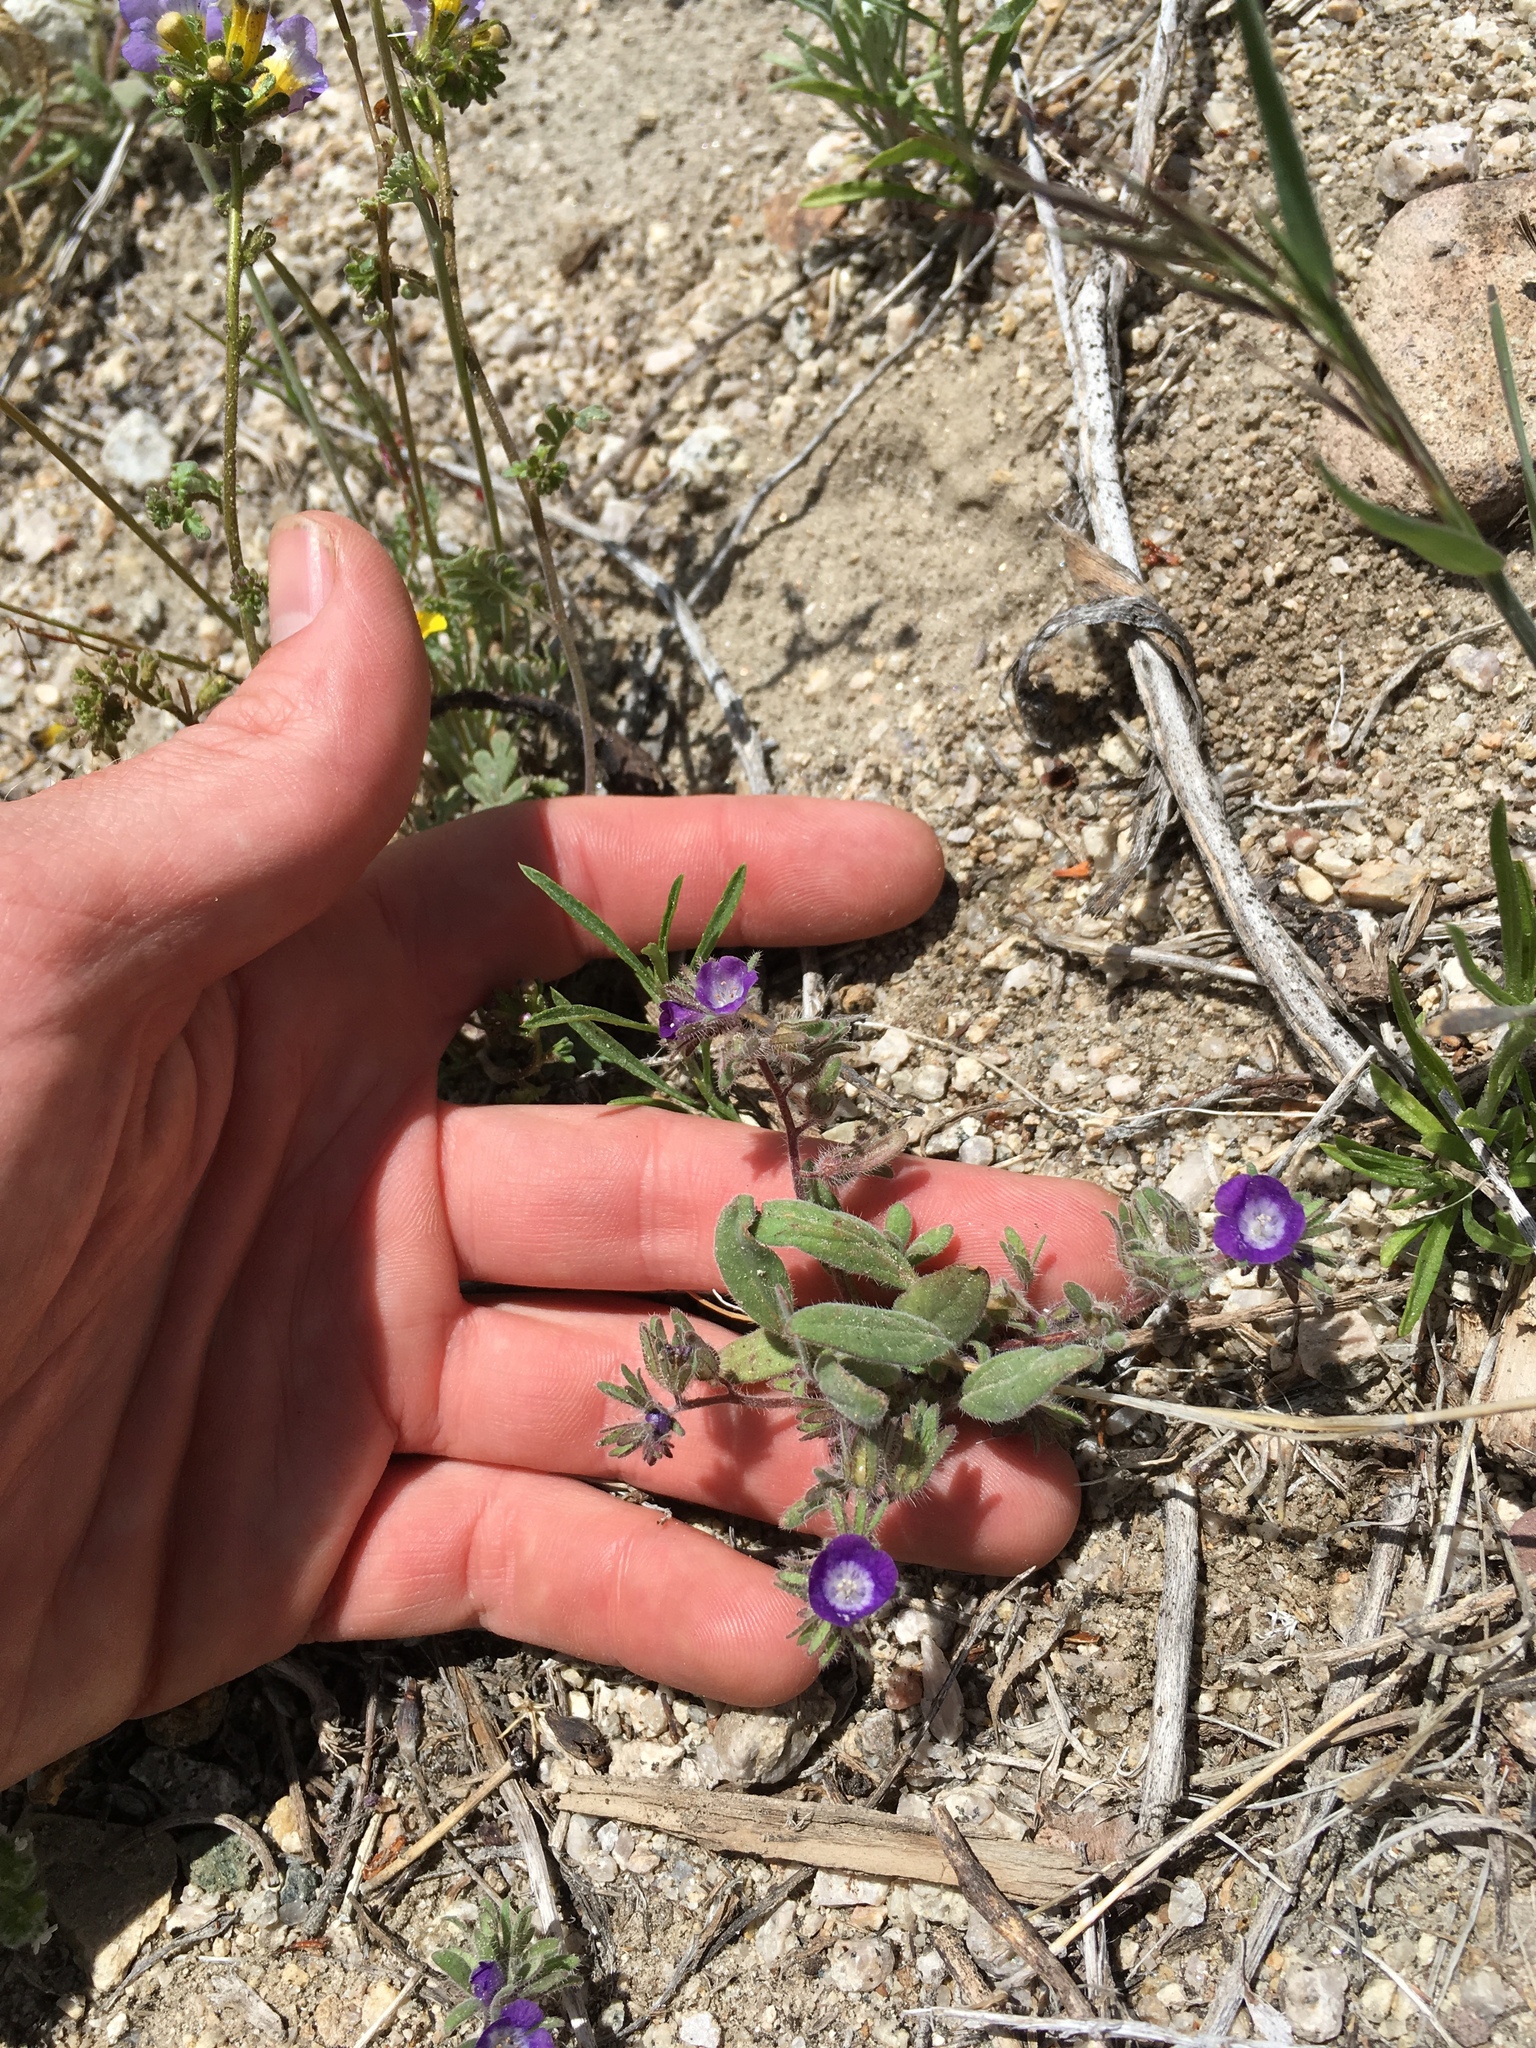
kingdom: Plantae
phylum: Tracheophyta
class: Magnoliopsida
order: Boraginales
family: Hydrophyllaceae
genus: Phacelia
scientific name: Phacelia curvipes
